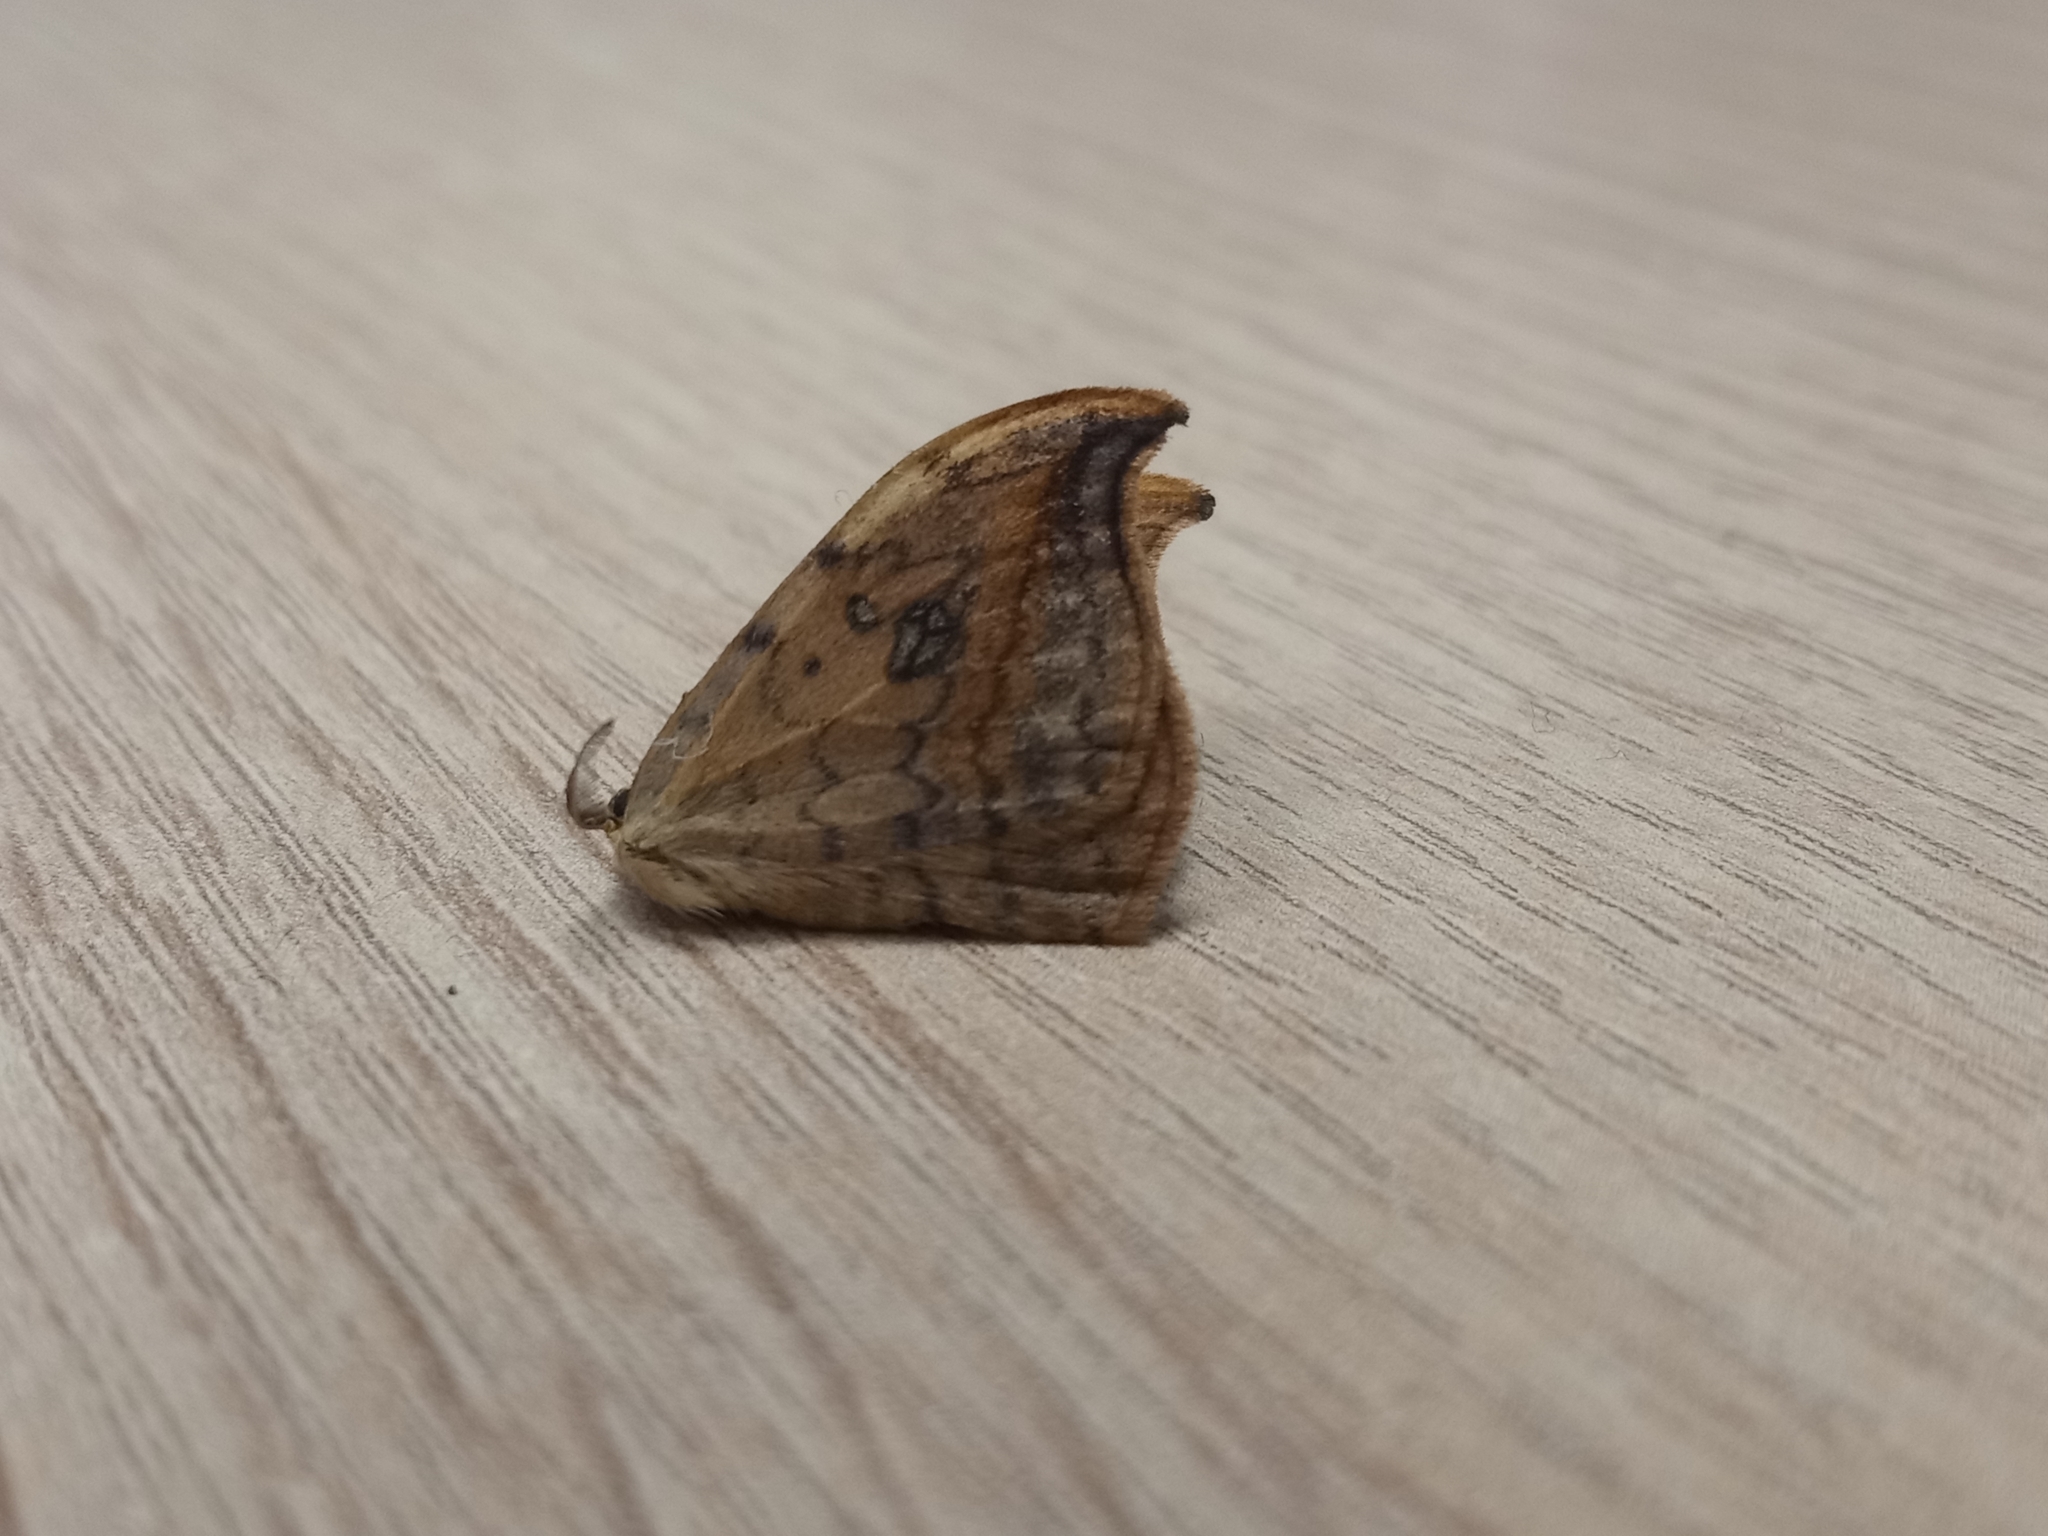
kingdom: Animalia
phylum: Arthropoda
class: Insecta
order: Lepidoptera
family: Drepanidae
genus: Drepana
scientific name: Drepana falcataria
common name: Pebble hook-tip
